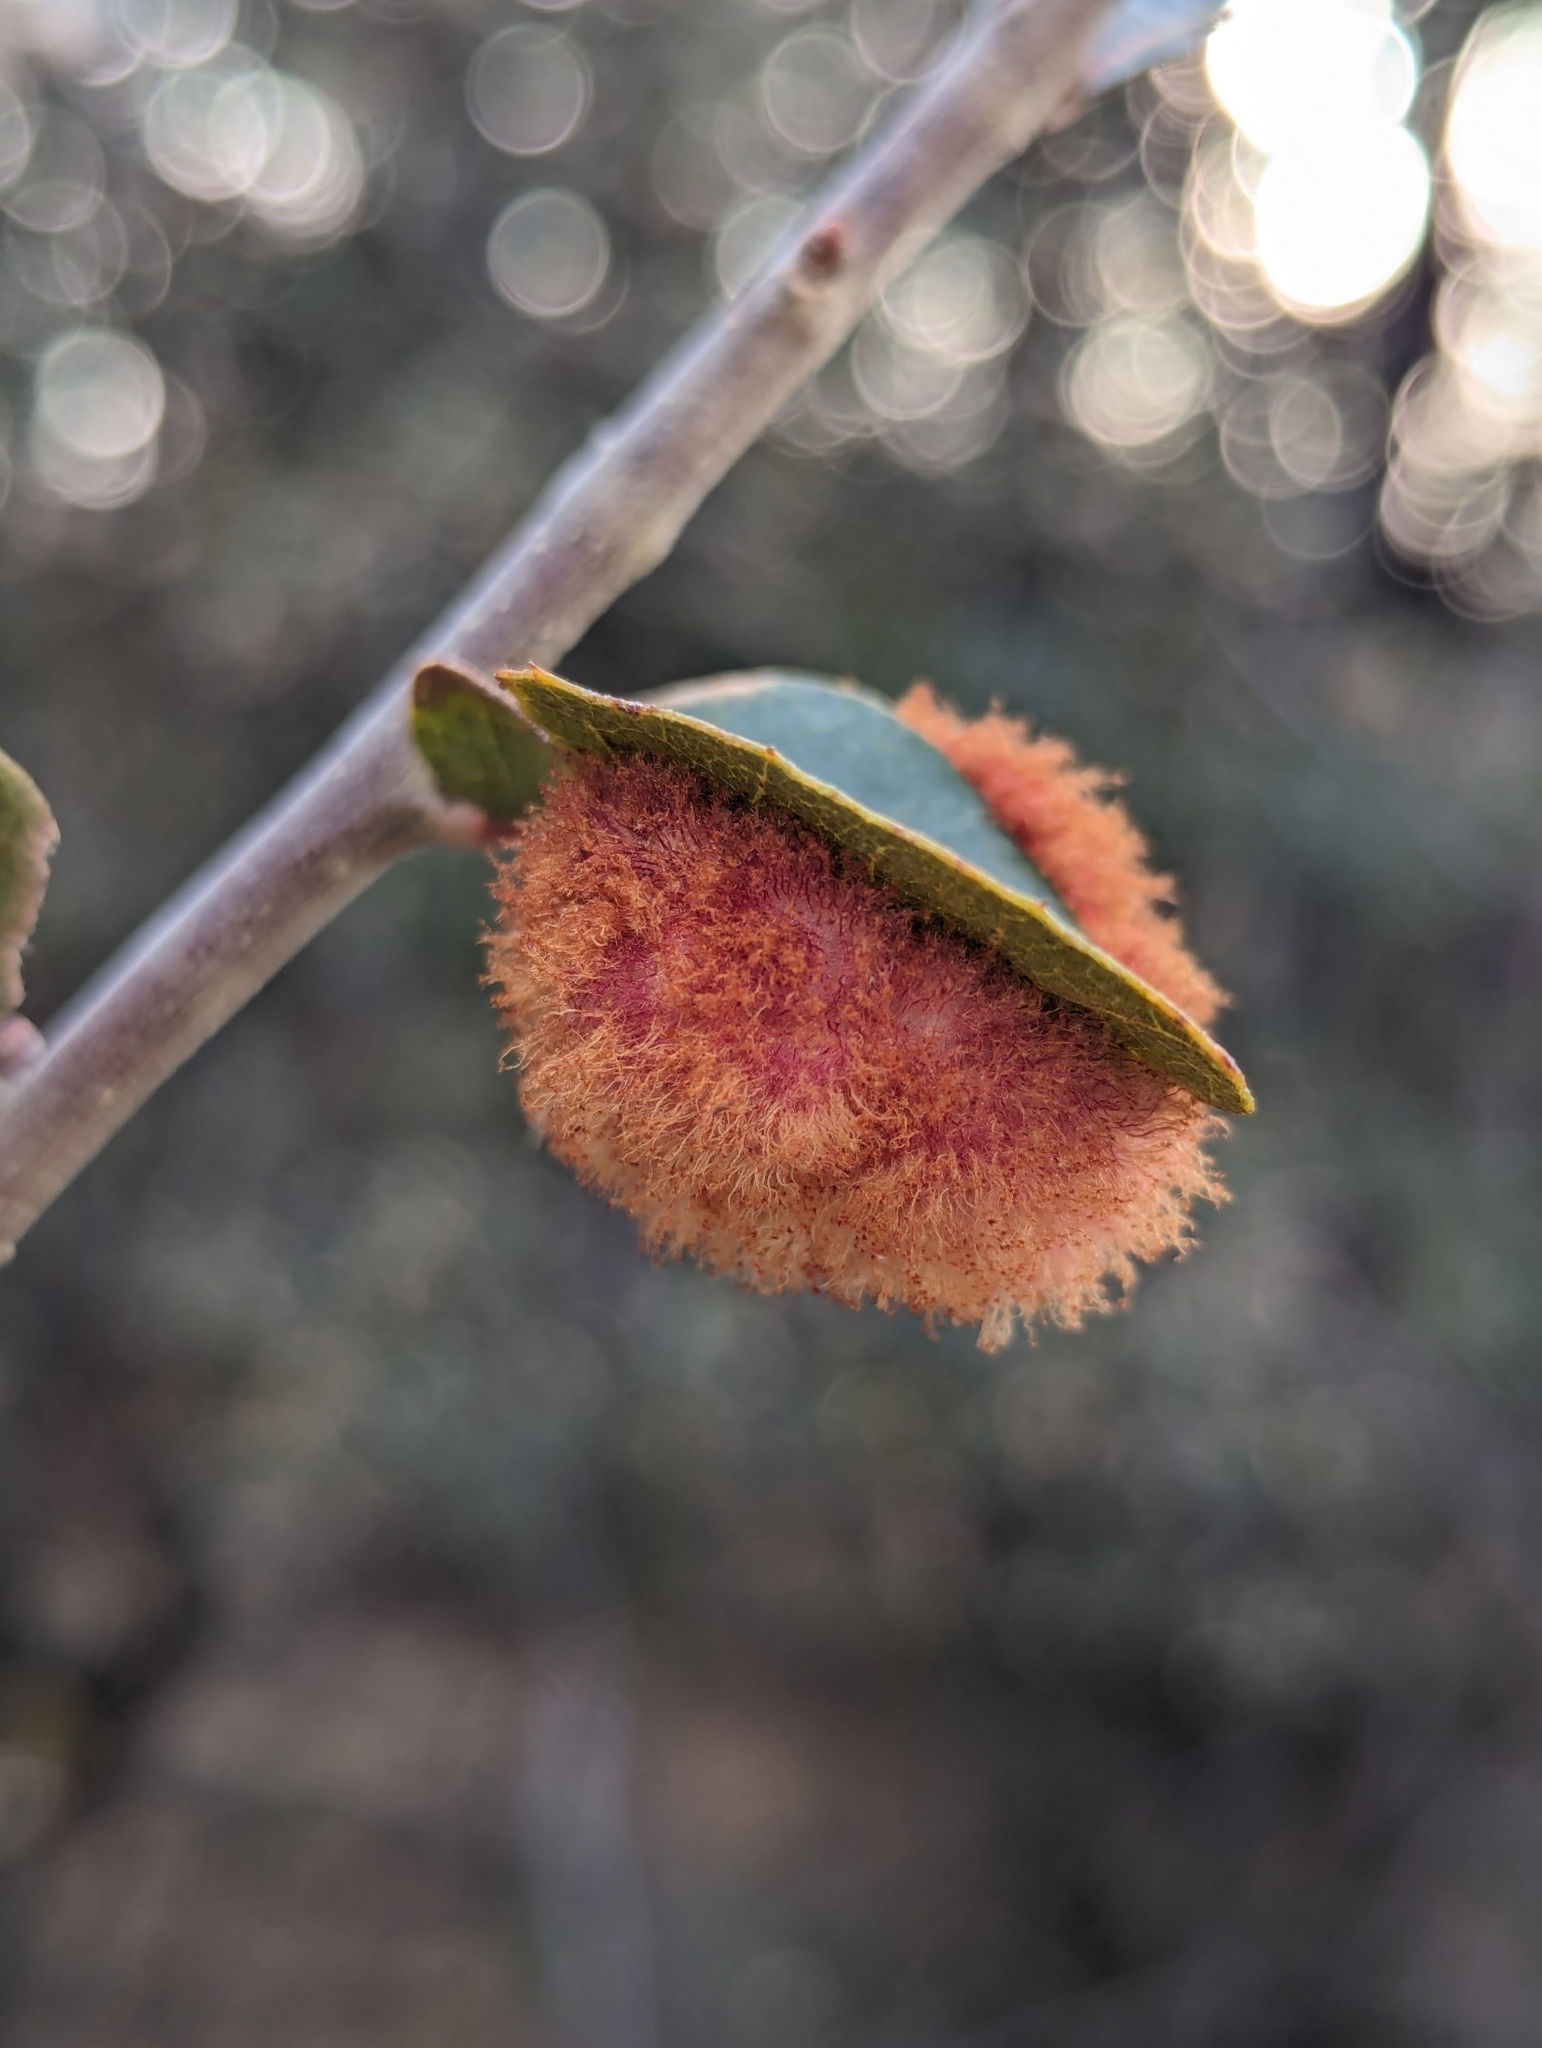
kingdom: Animalia
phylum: Arthropoda
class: Insecta
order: Hymenoptera
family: Cynipidae
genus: Andricus
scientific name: Andricus
